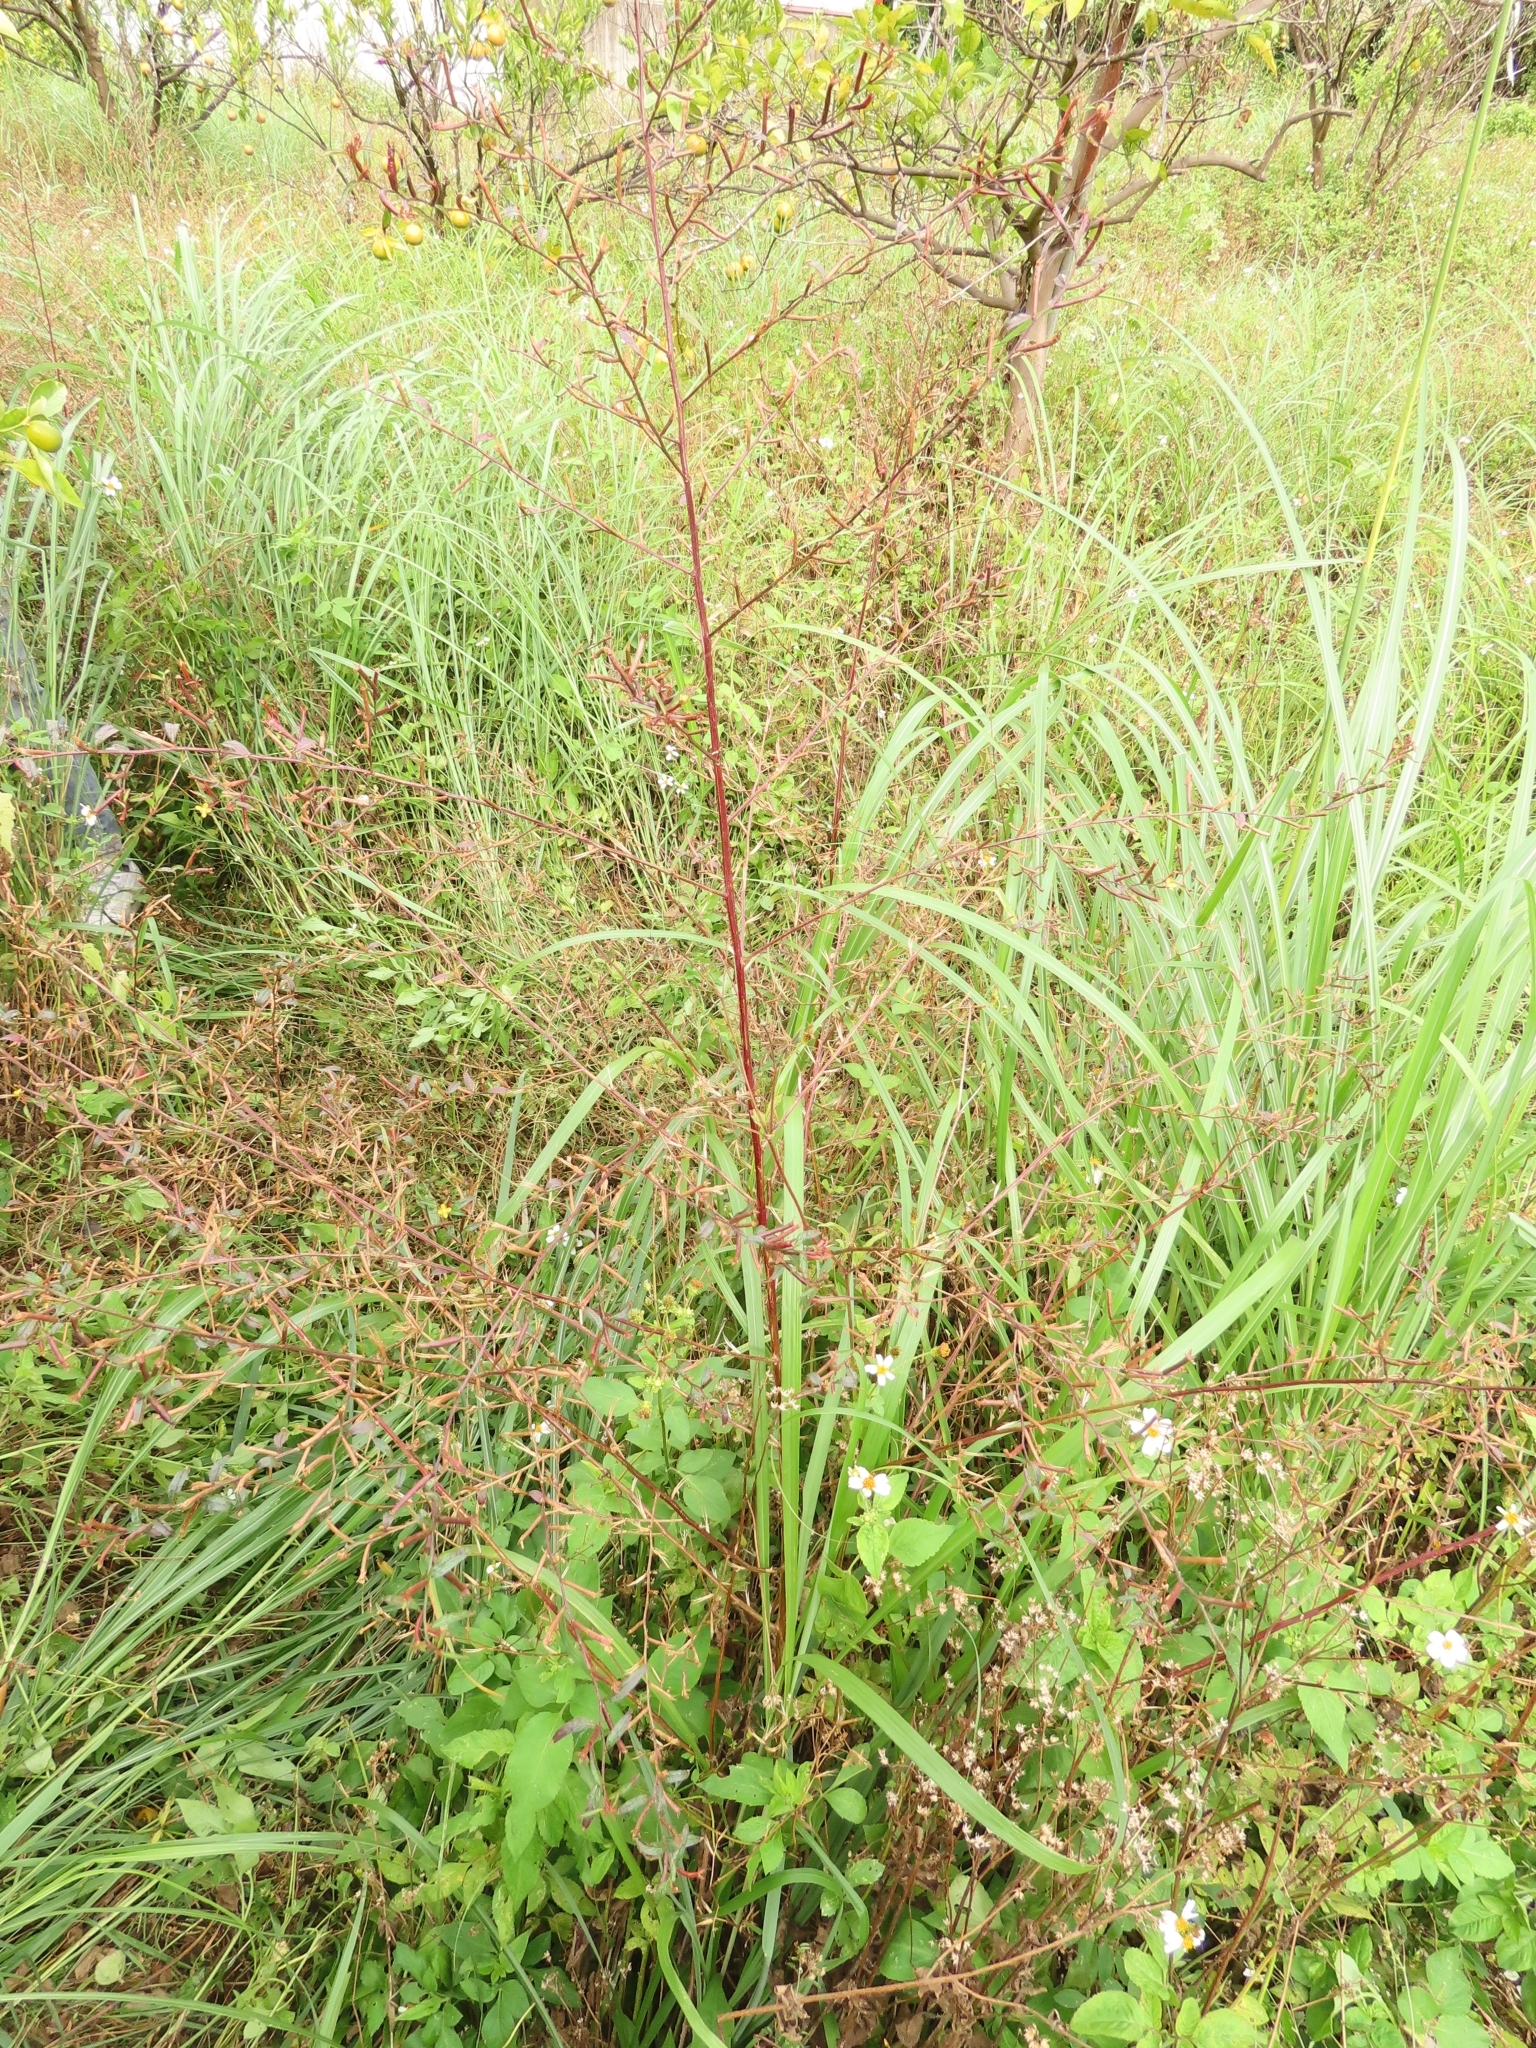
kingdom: Plantae
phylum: Tracheophyta
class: Magnoliopsida
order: Myrtales
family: Onagraceae
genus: Ludwigia
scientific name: Ludwigia hyssopifolia
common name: Linear leaf water primrose
